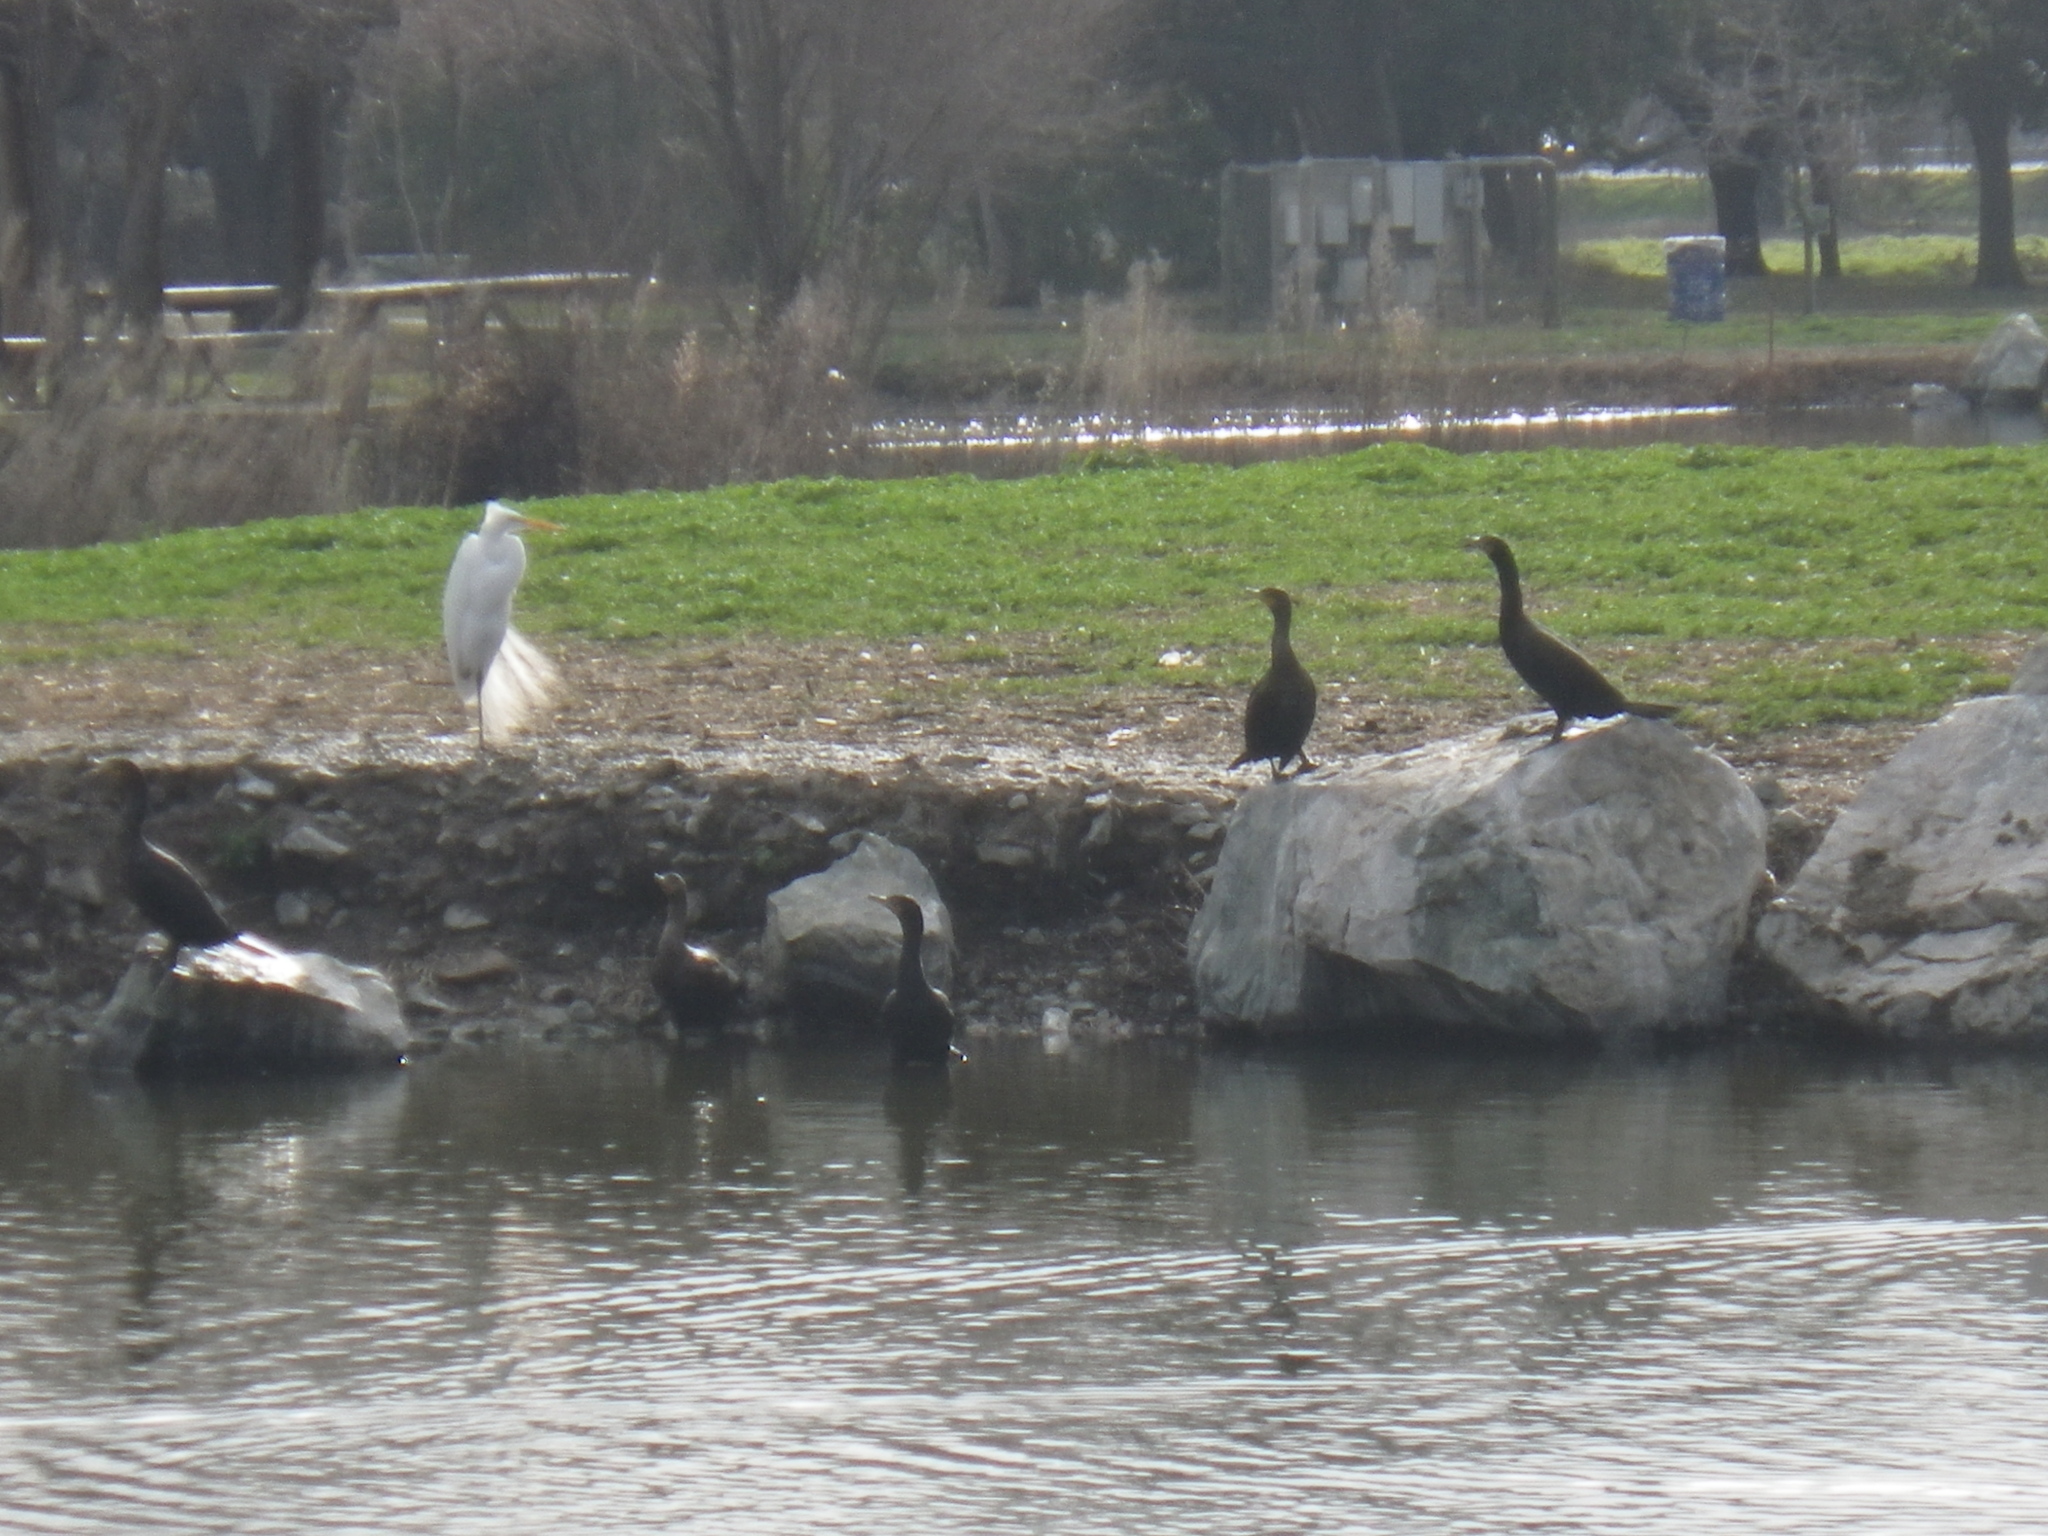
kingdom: Animalia
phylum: Chordata
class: Aves
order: Suliformes
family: Phalacrocoracidae
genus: Phalacrocorax
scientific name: Phalacrocorax auritus
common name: Double-crested cormorant
